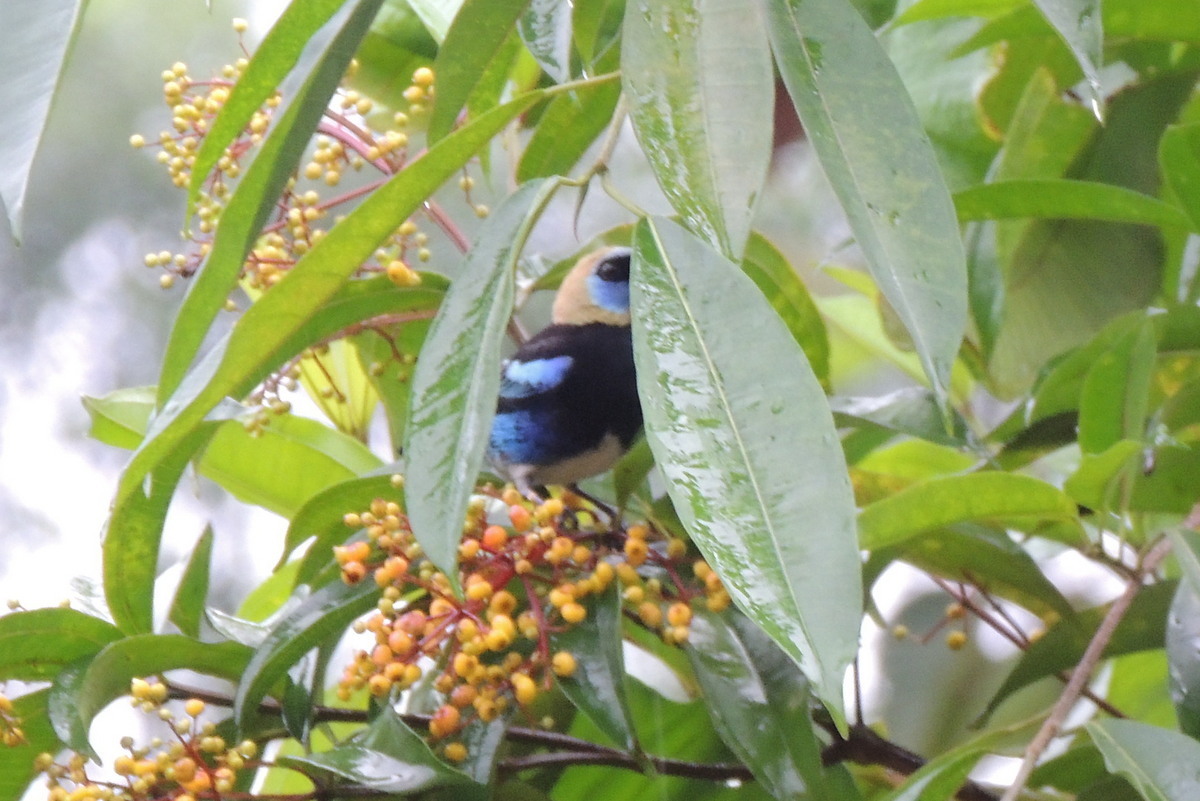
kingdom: Animalia
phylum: Chordata
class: Aves
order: Passeriformes
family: Thraupidae
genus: Stilpnia
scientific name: Stilpnia larvata
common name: Golden-hooded tanager
